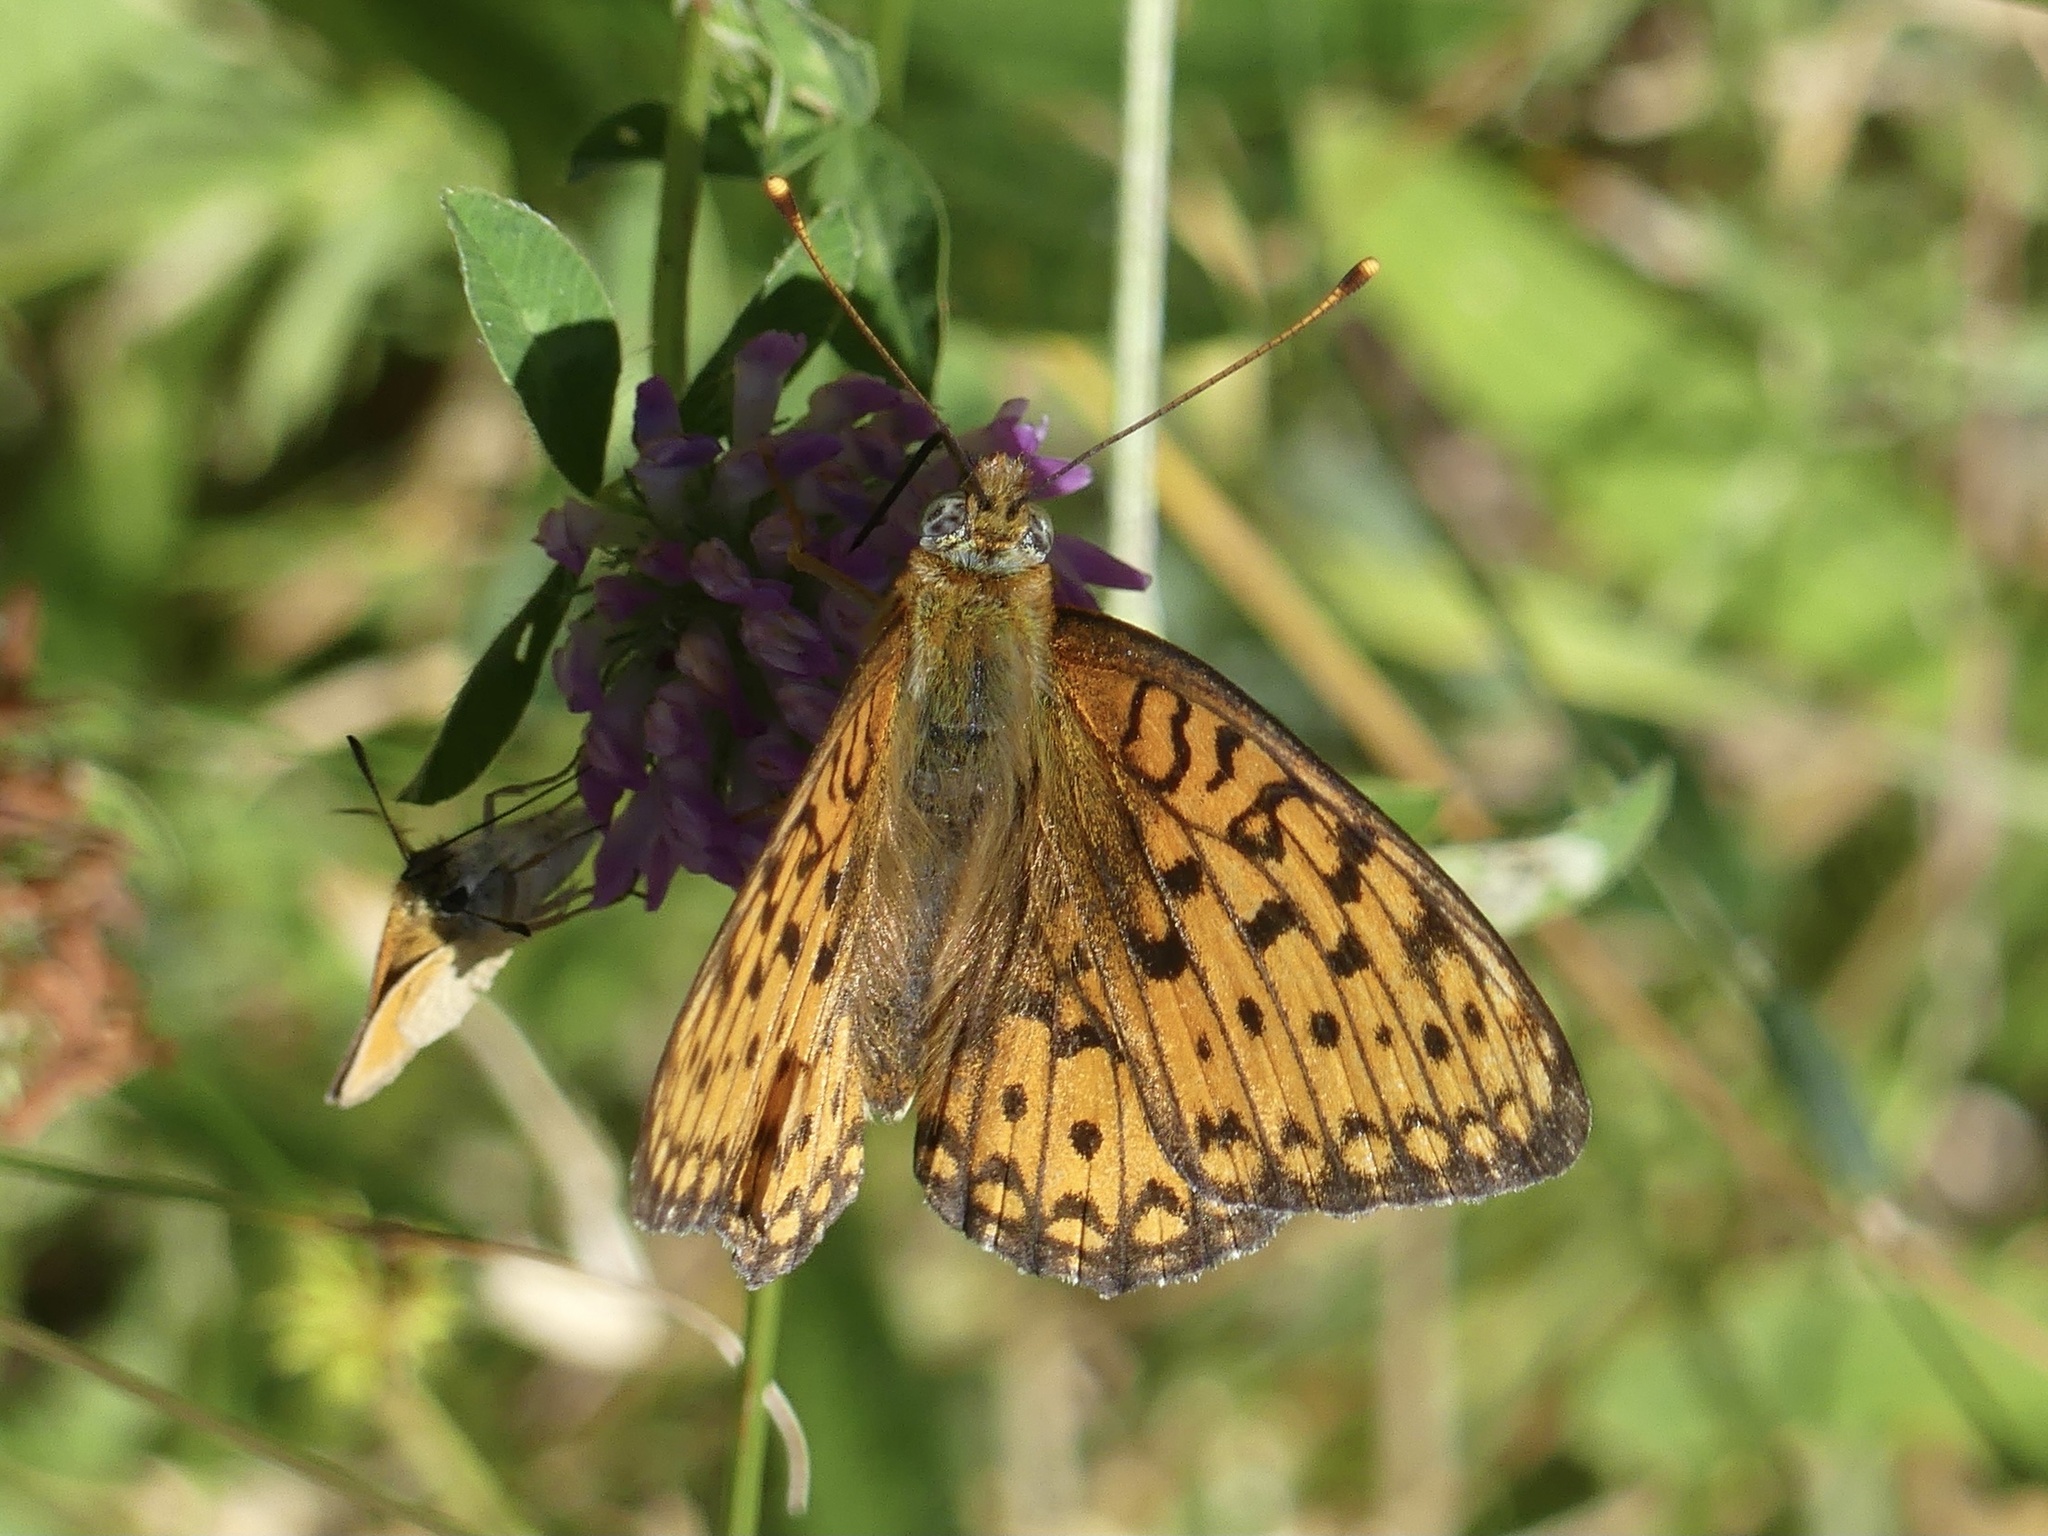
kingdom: Animalia
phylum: Arthropoda
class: Insecta
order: Lepidoptera
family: Nymphalidae
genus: Fabriciana
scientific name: Fabriciana niobe
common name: Niobe fritillary
